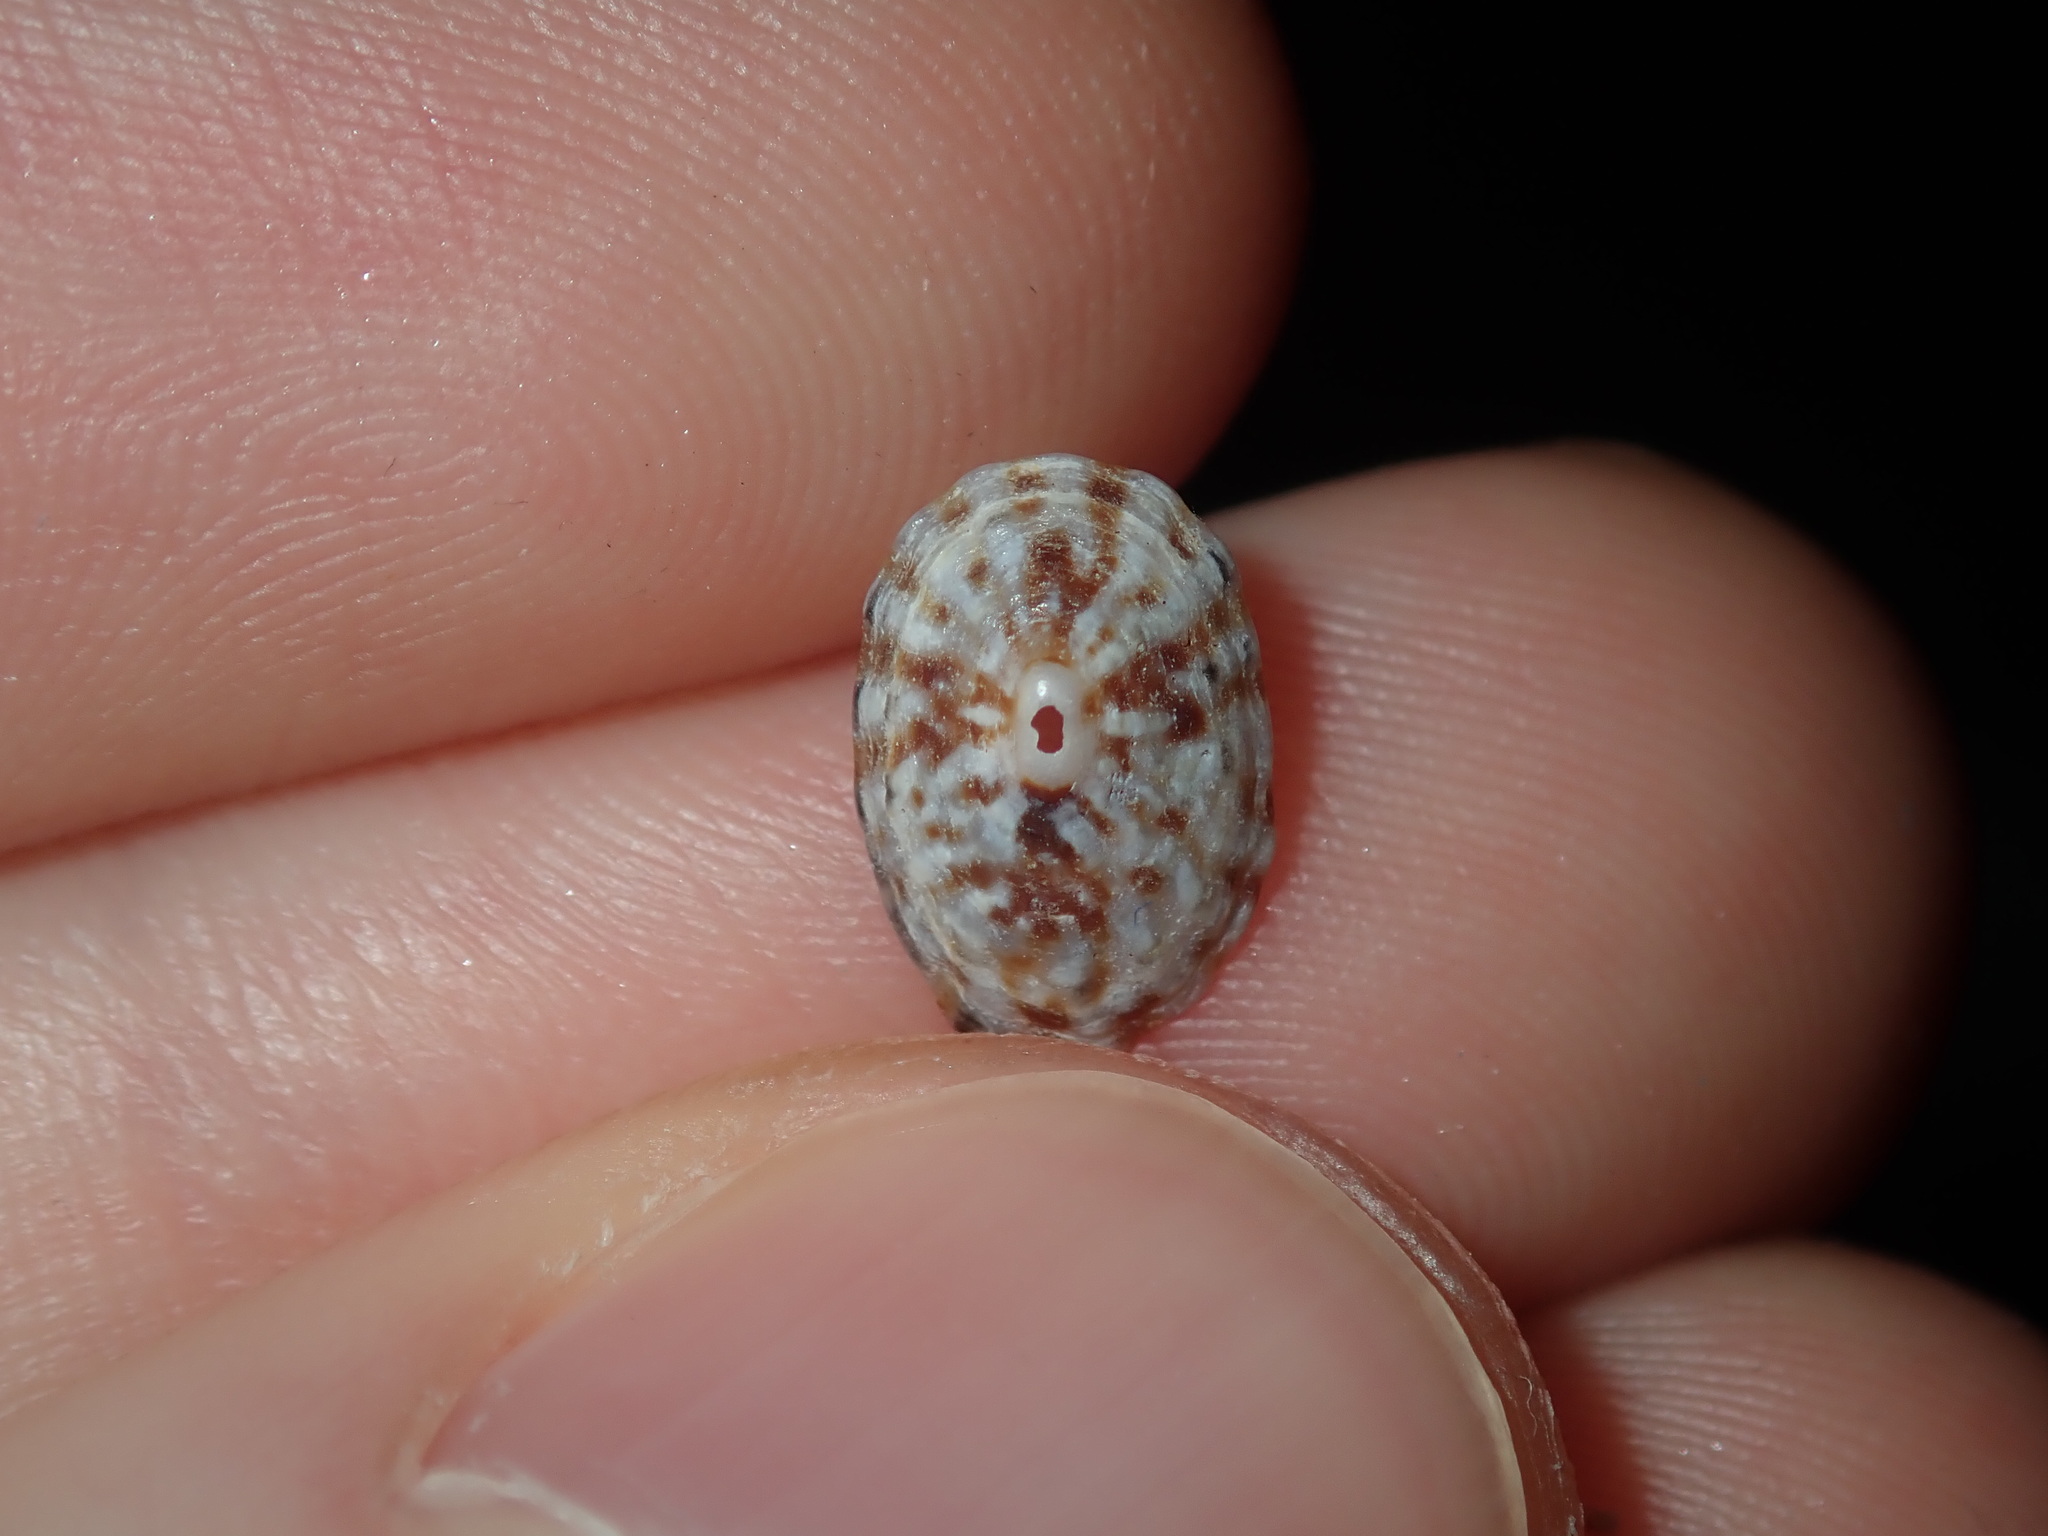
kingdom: Animalia
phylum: Mollusca
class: Gastropoda
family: Lottiidae
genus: Patelloida
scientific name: Patelloida mufria
